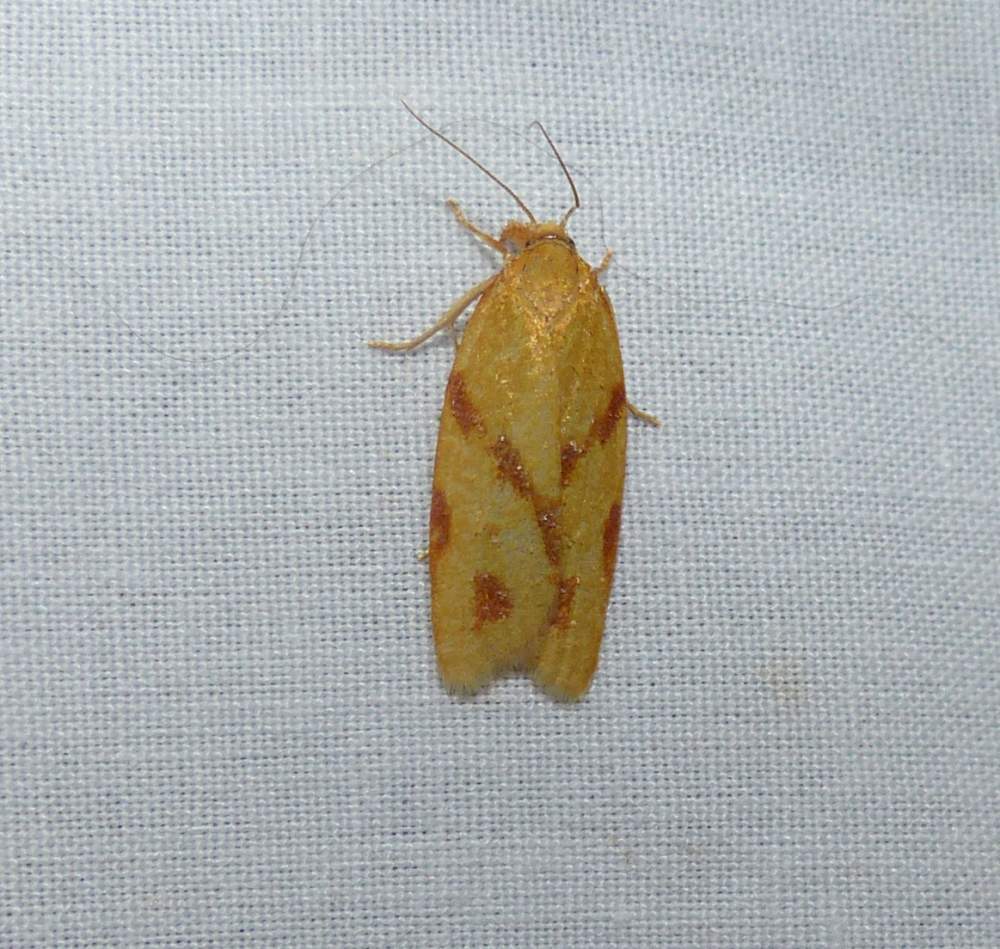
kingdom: Animalia
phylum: Arthropoda
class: Insecta
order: Lepidoptera
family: Tortricidae
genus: Sparganothis
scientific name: Sparganothis unifasciana
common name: One-lined sparganothis moth
